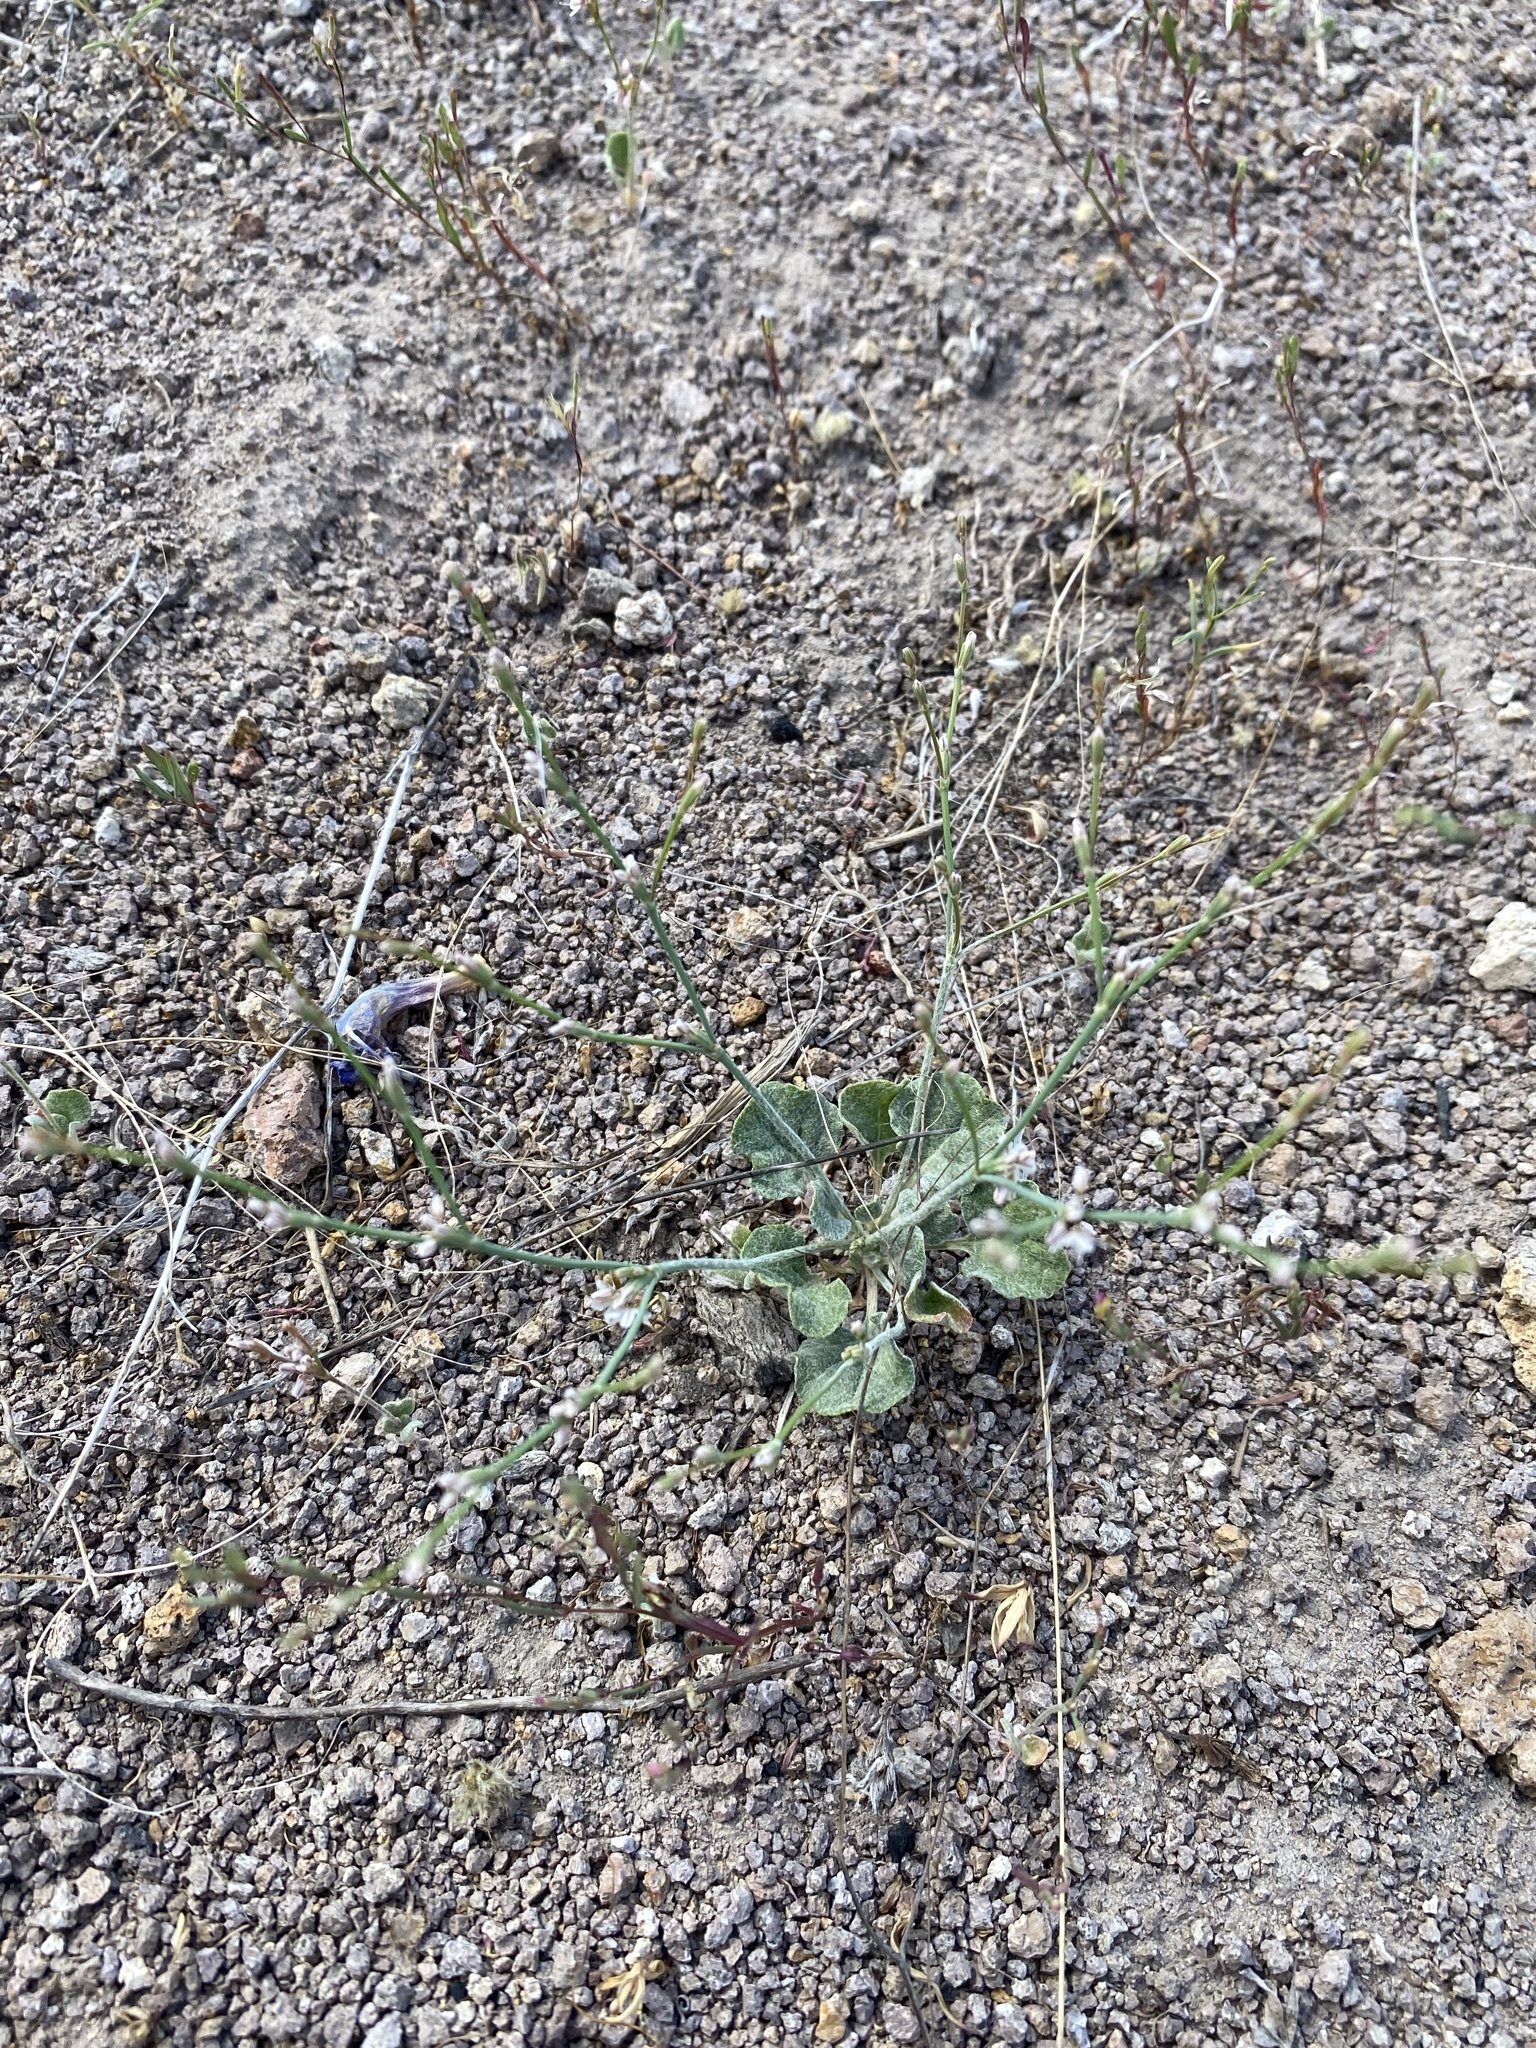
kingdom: Plantae
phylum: Tracheophyta
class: Magnoliopsida
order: Caryophyllales
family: Polygonaceae
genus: Eriogonum
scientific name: Eriogonum vimineum
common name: Wicker buckwheat
